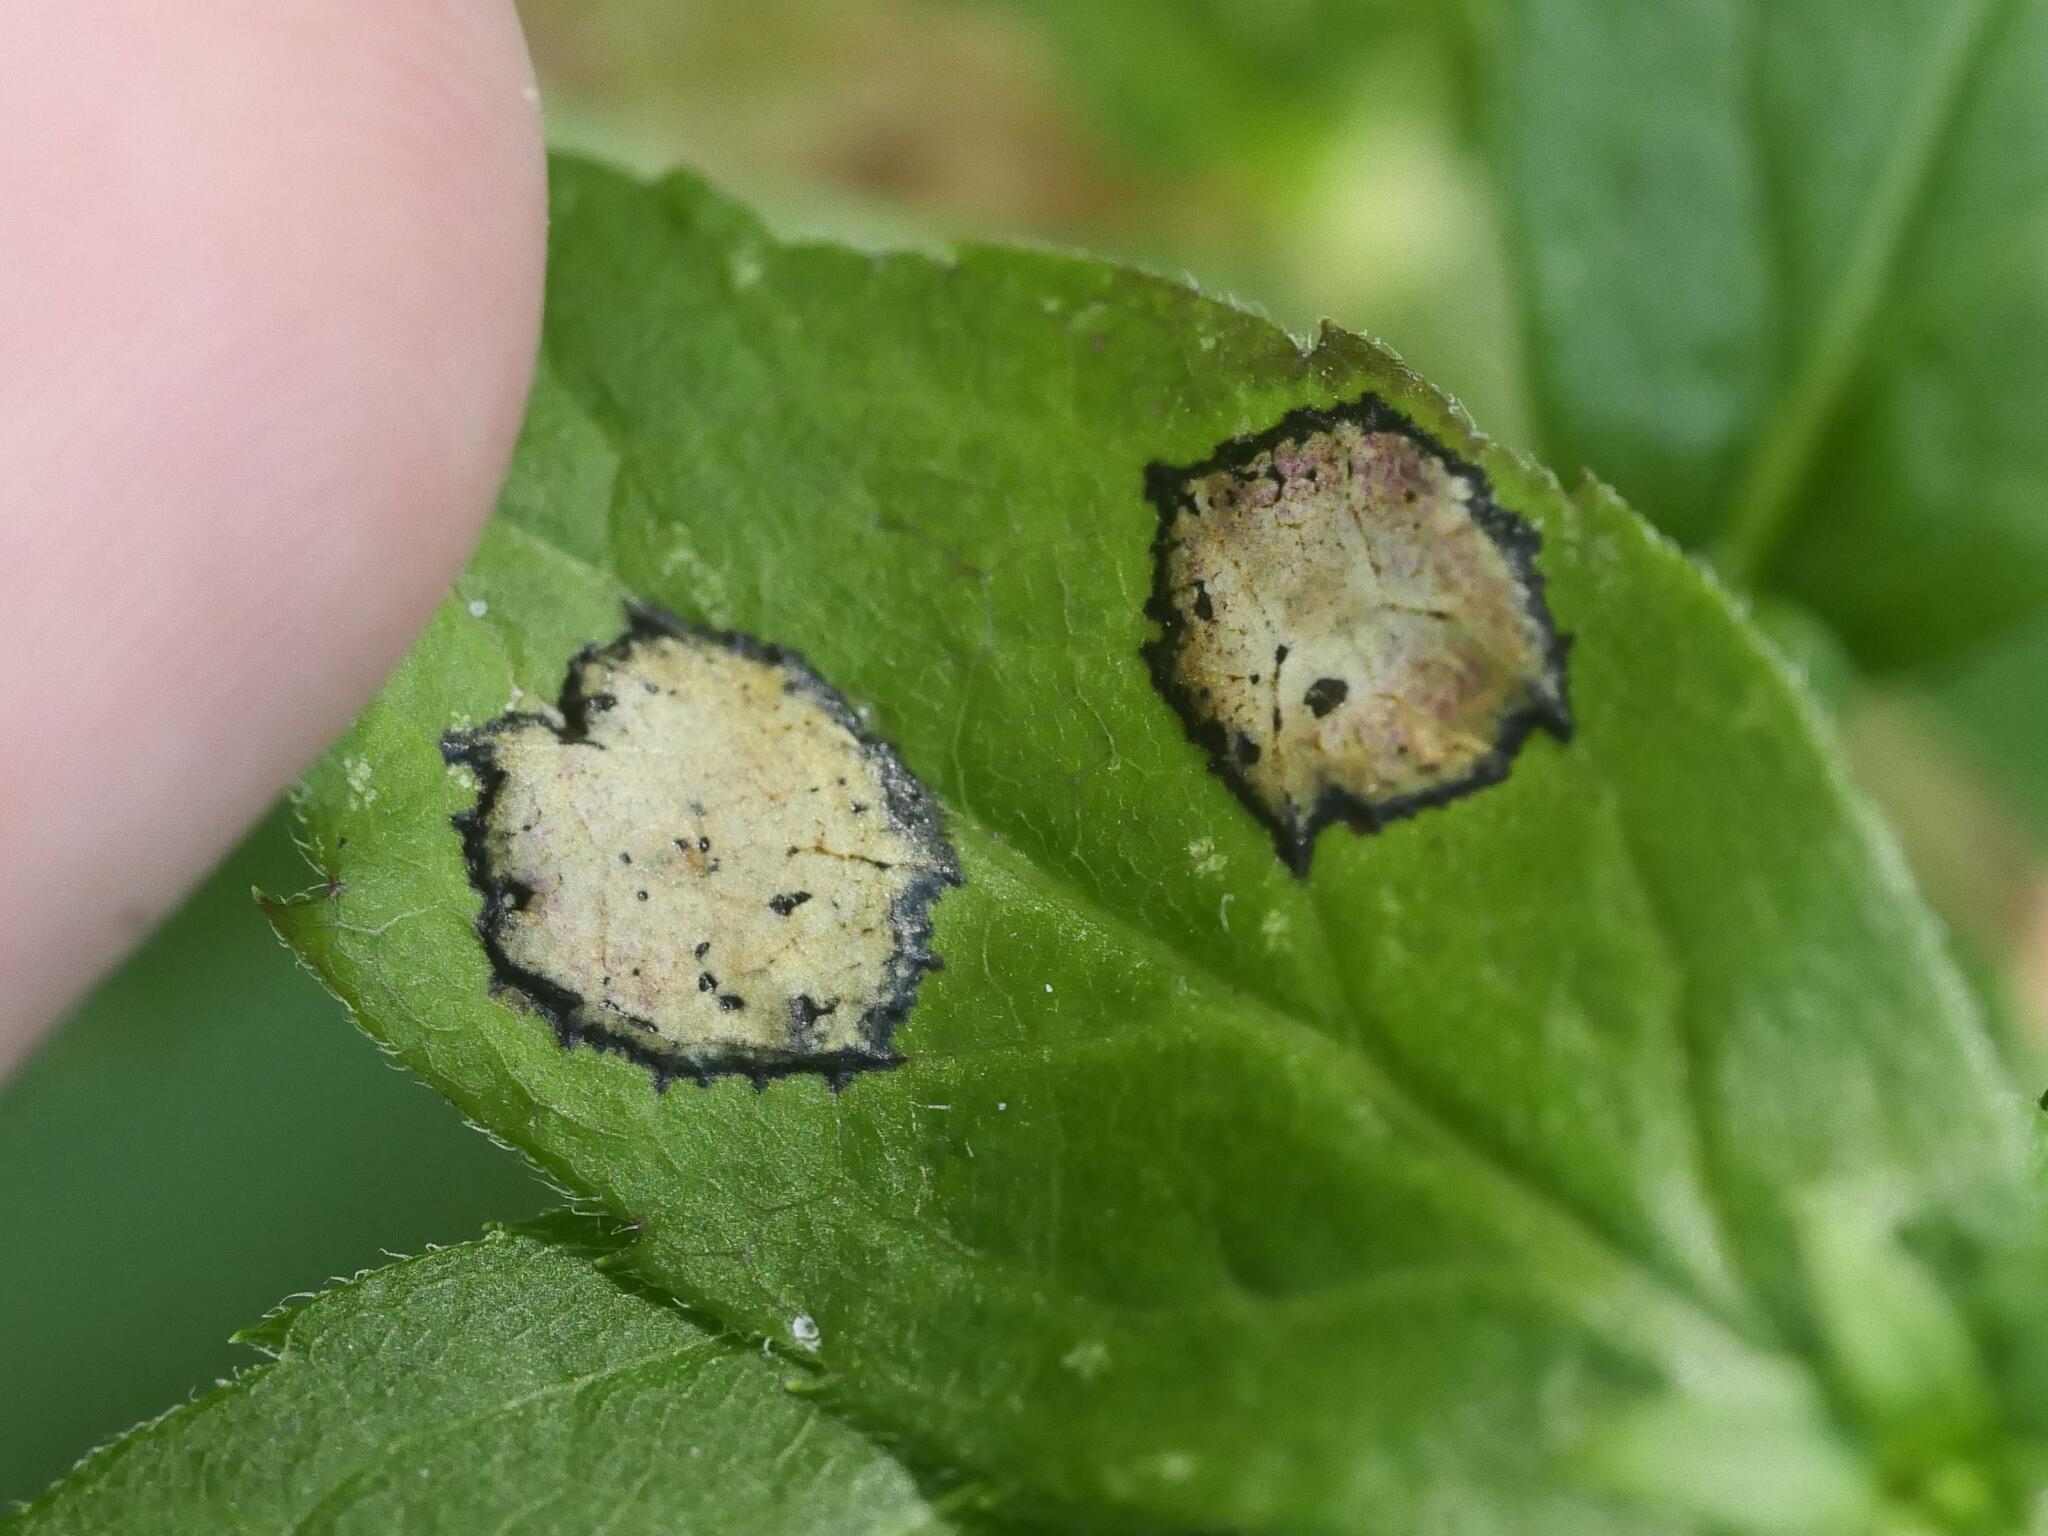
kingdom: Animalia
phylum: Arthropoda
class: Insecta
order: Diptera
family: Cecidomyiidae
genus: Asteromyia
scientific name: Asteromyia carbonifera
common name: Carbonifera goldenrod gall midge
